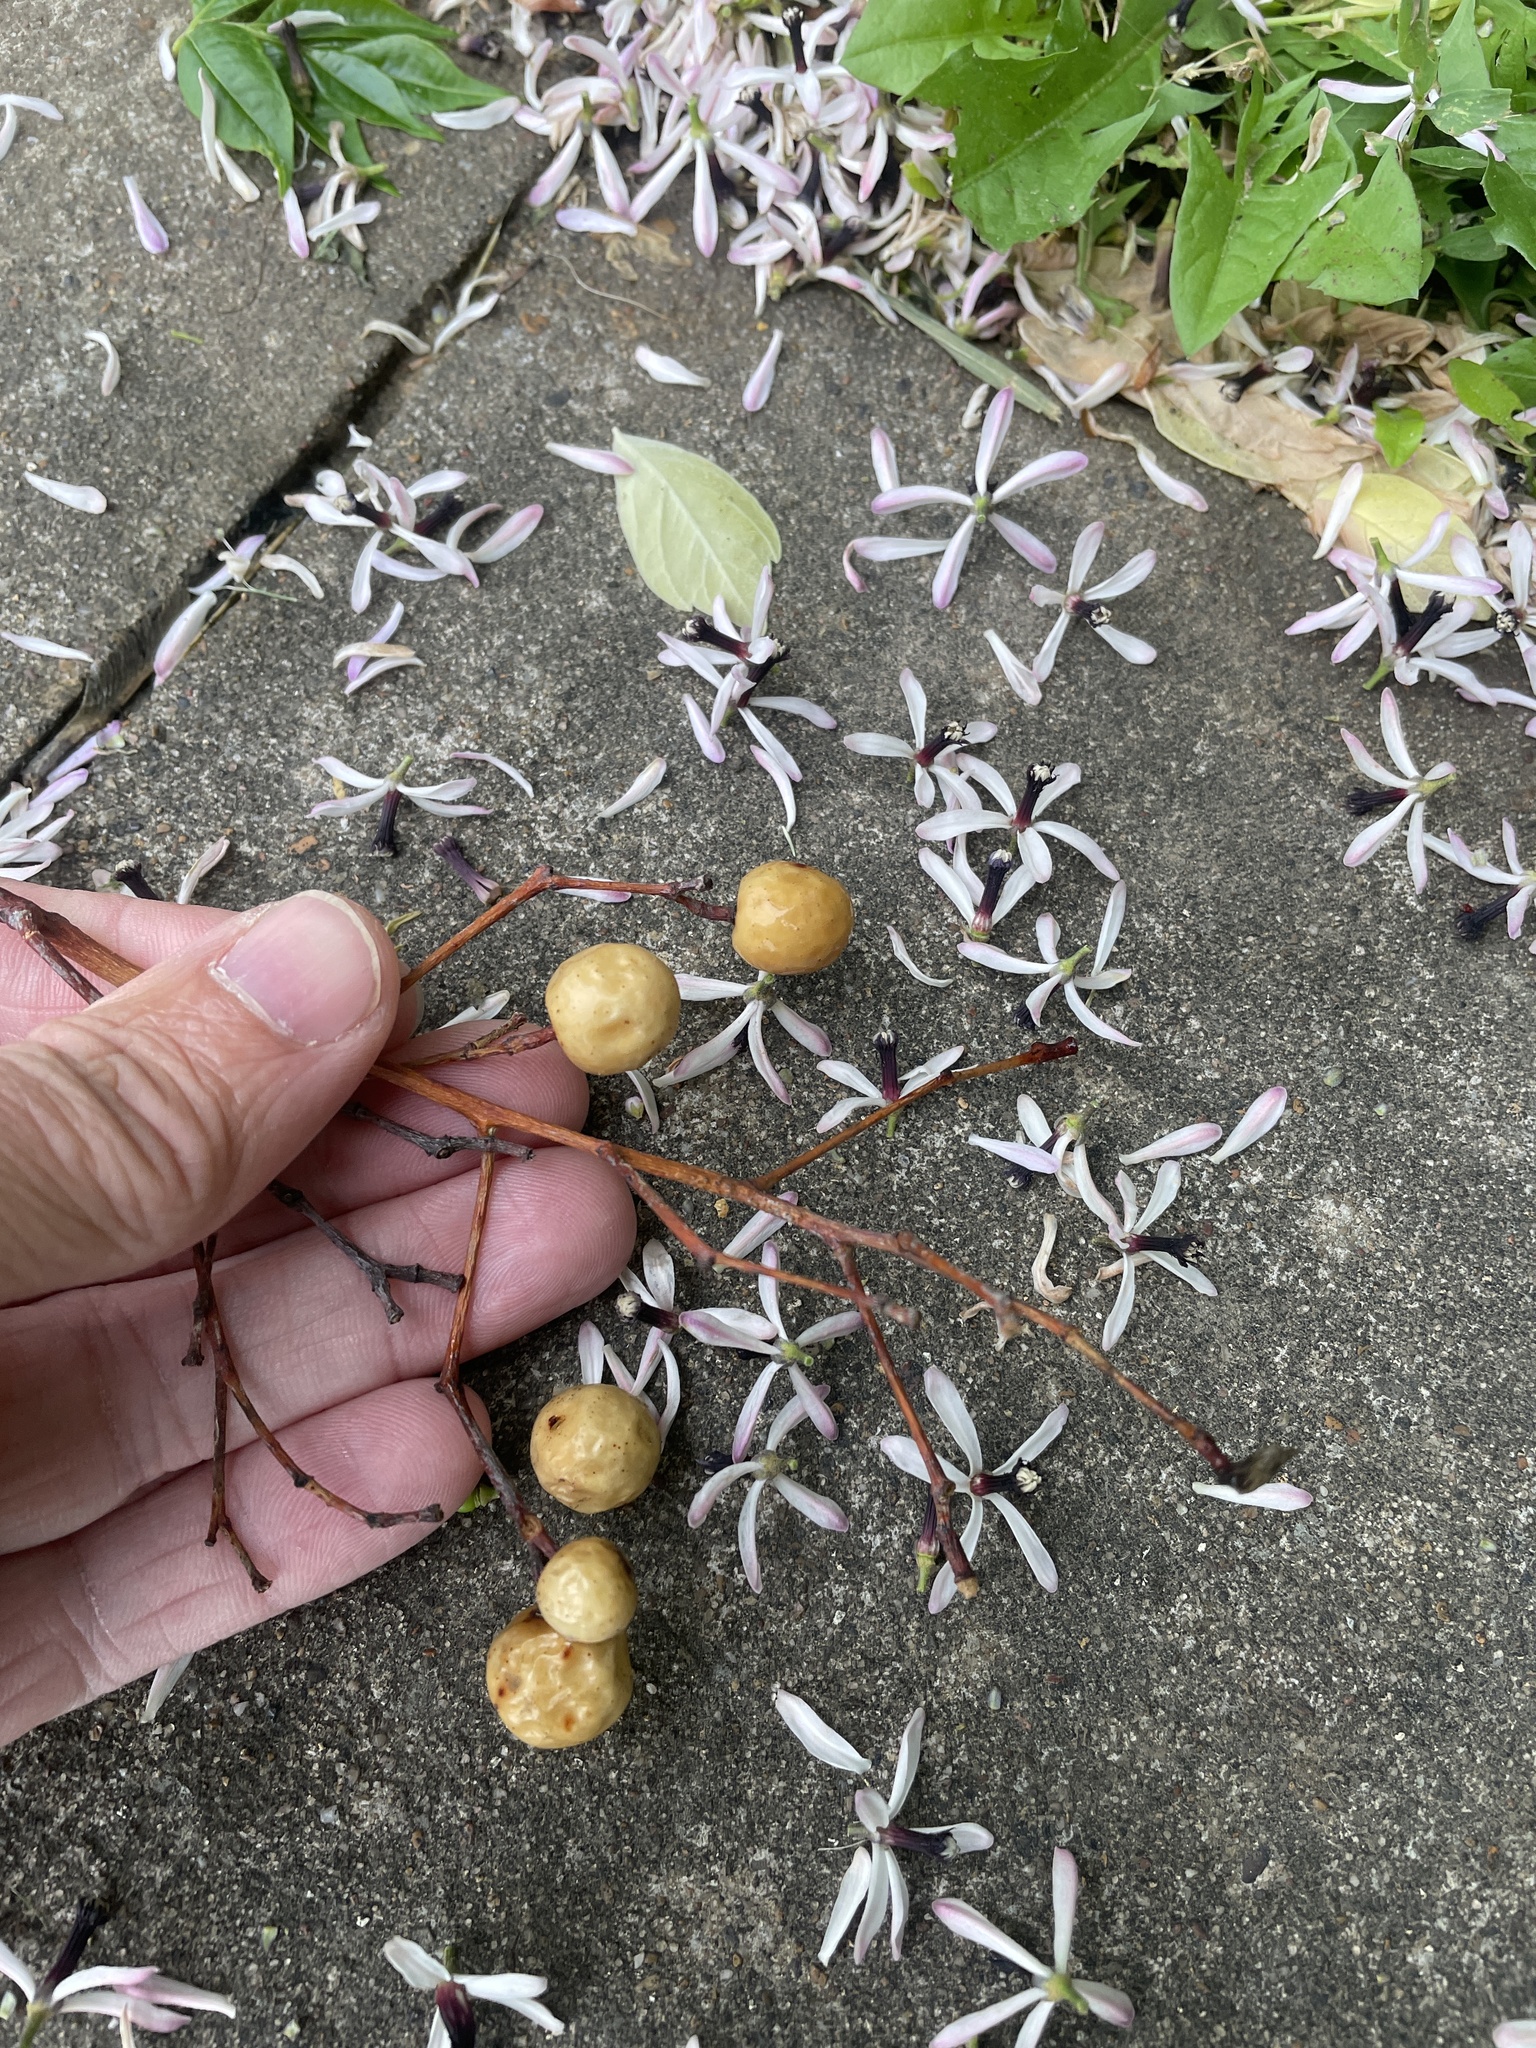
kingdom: Plantae
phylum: Tracheophyta
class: Magnoliopsida
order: Sapindales
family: Meliaceae
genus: Melia
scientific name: Melia azedarach
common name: Chinaberrytree
